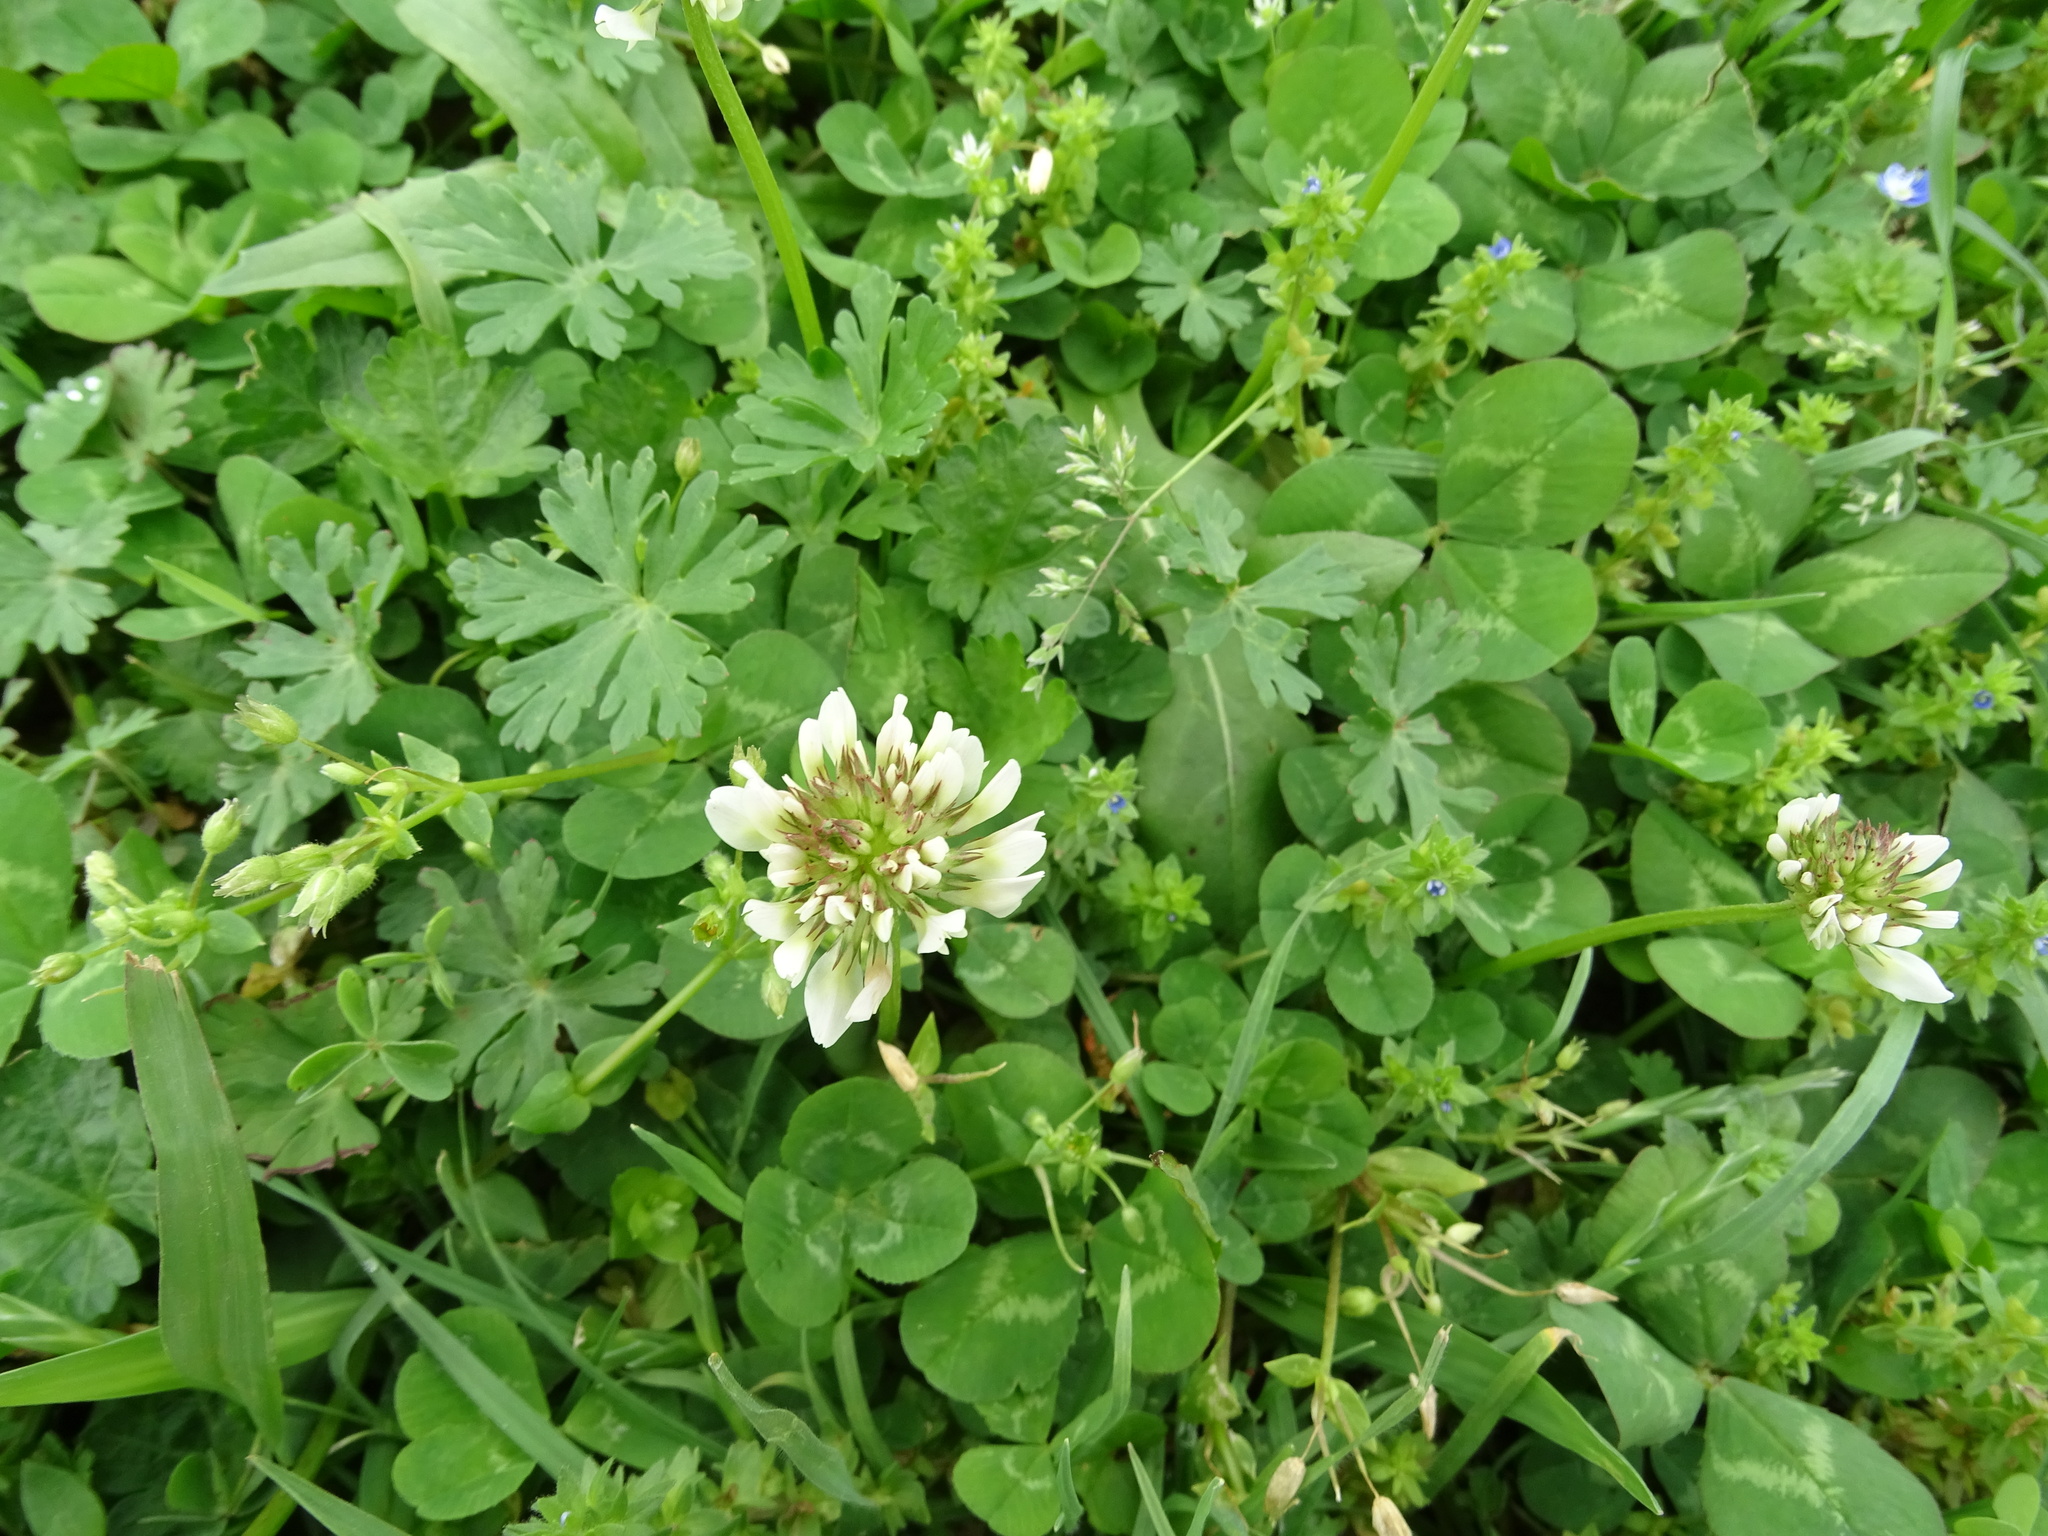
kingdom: Plantae
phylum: Tracheophyta
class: Magnoliopsida
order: Fabales
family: Fabaceae
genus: Trifolium
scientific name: Trifolium repens
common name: White clover
